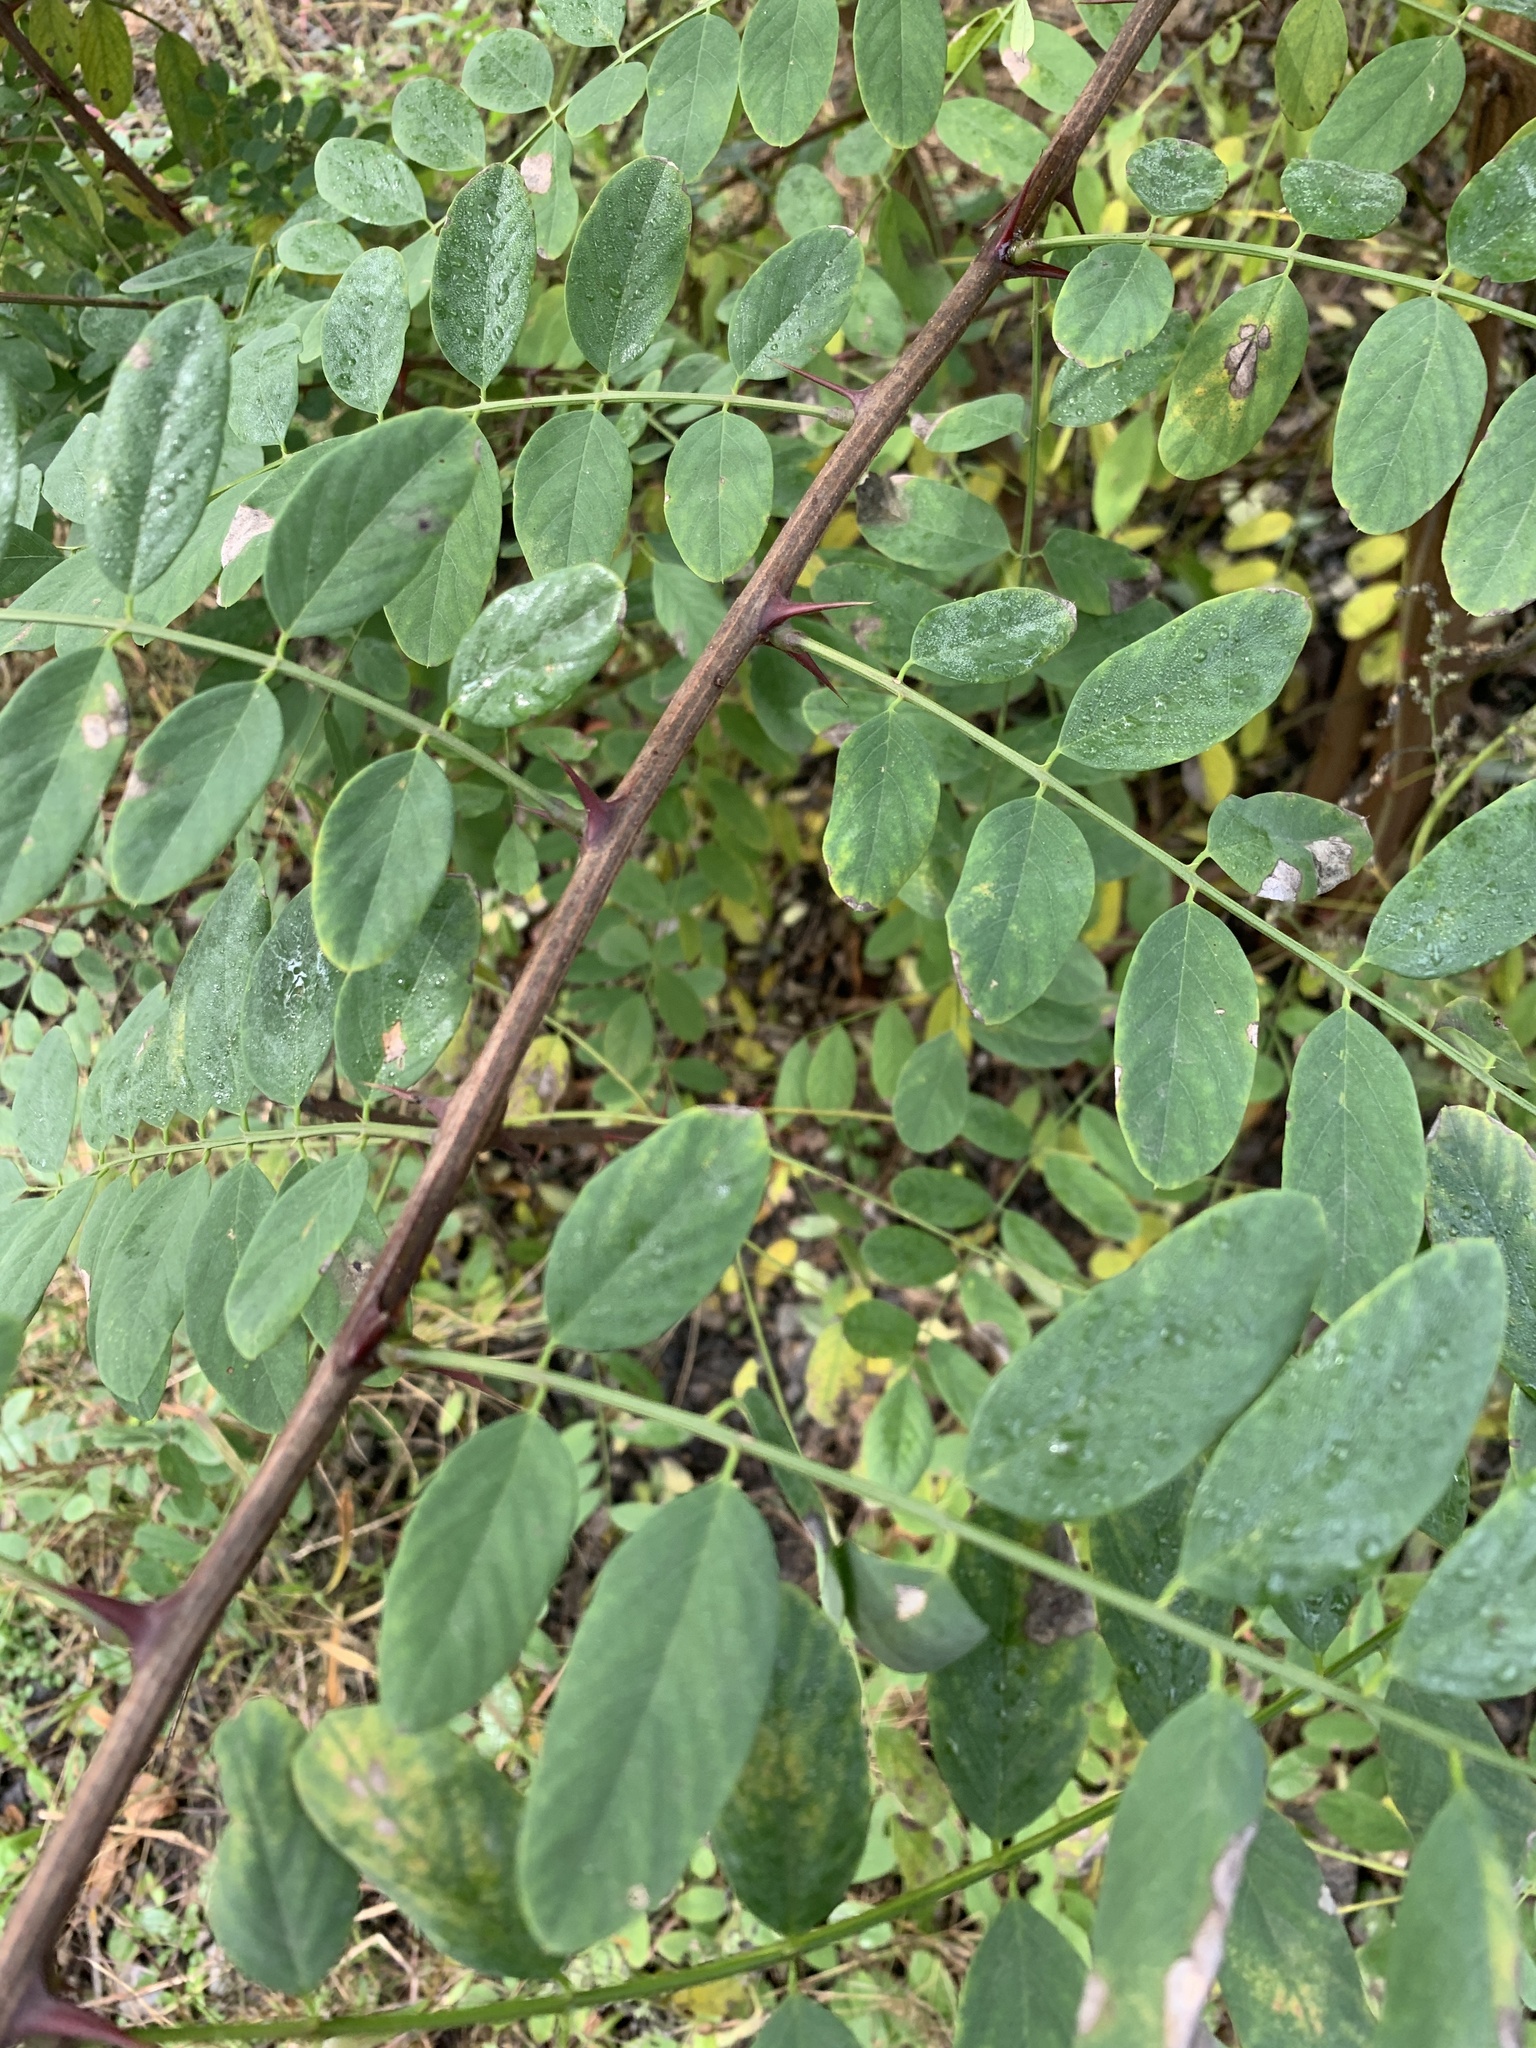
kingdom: Plantae
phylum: Tracheophyta
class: Magnoliopsida
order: Fabales
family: Fabaceae
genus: Robinia
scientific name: Robinia pseudoacacia
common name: Black locust
